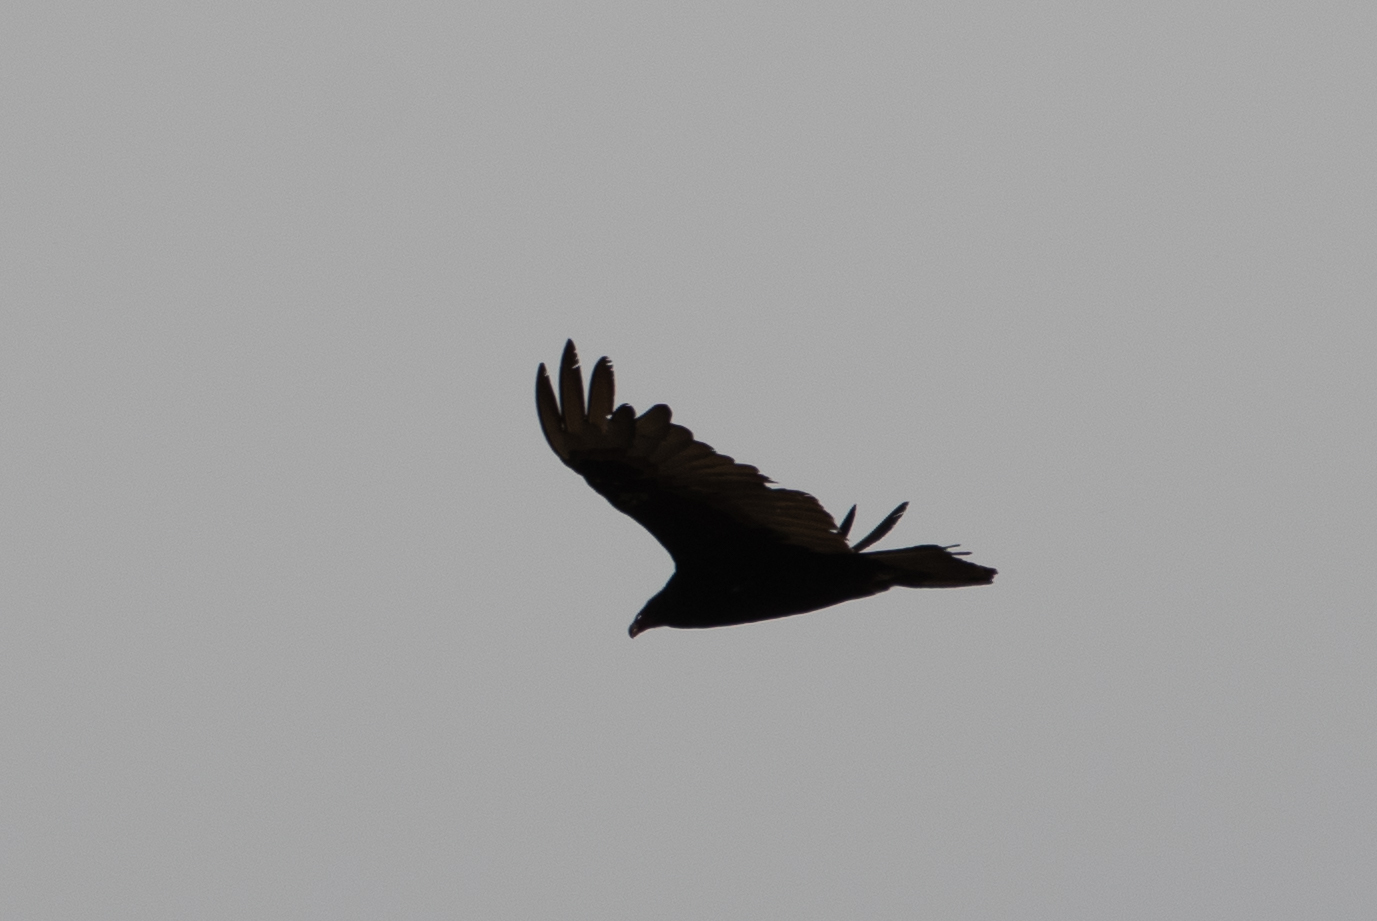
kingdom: Animalia
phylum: Chordata
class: Aves
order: Accipitriformes
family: Cathartidae
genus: Cathartes
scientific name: Cathartes aura
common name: Turkey vulture
